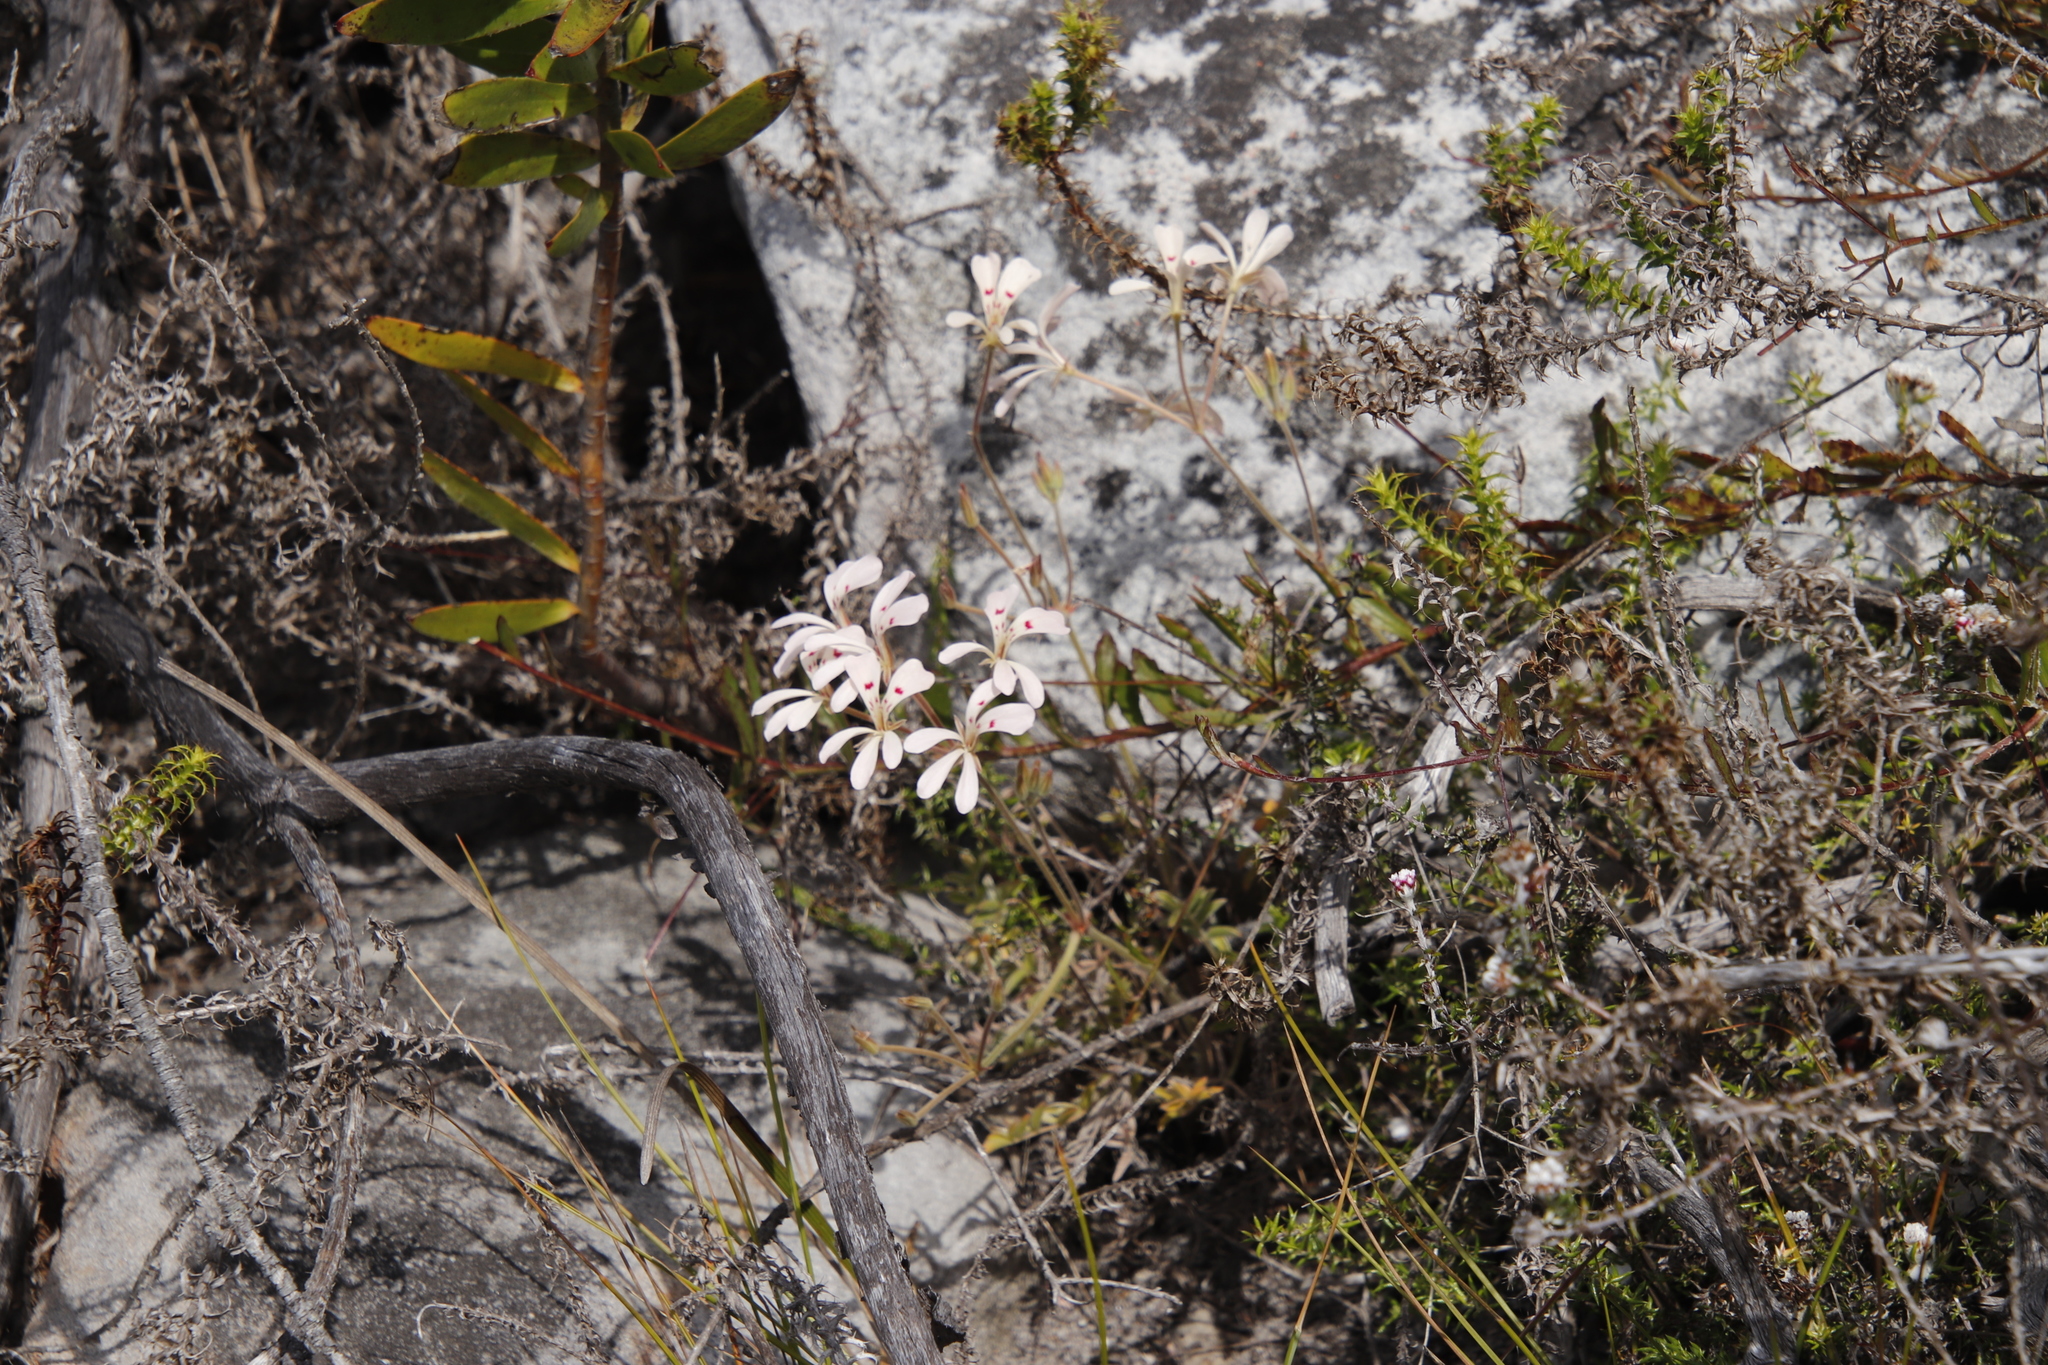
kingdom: Plantae
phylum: Tracheophyta
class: Magnoliopsida
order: Geraniales
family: Geraniaceae
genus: Pelargonium
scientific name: Pelargonium pinnatum
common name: Pinnated pelargonium
